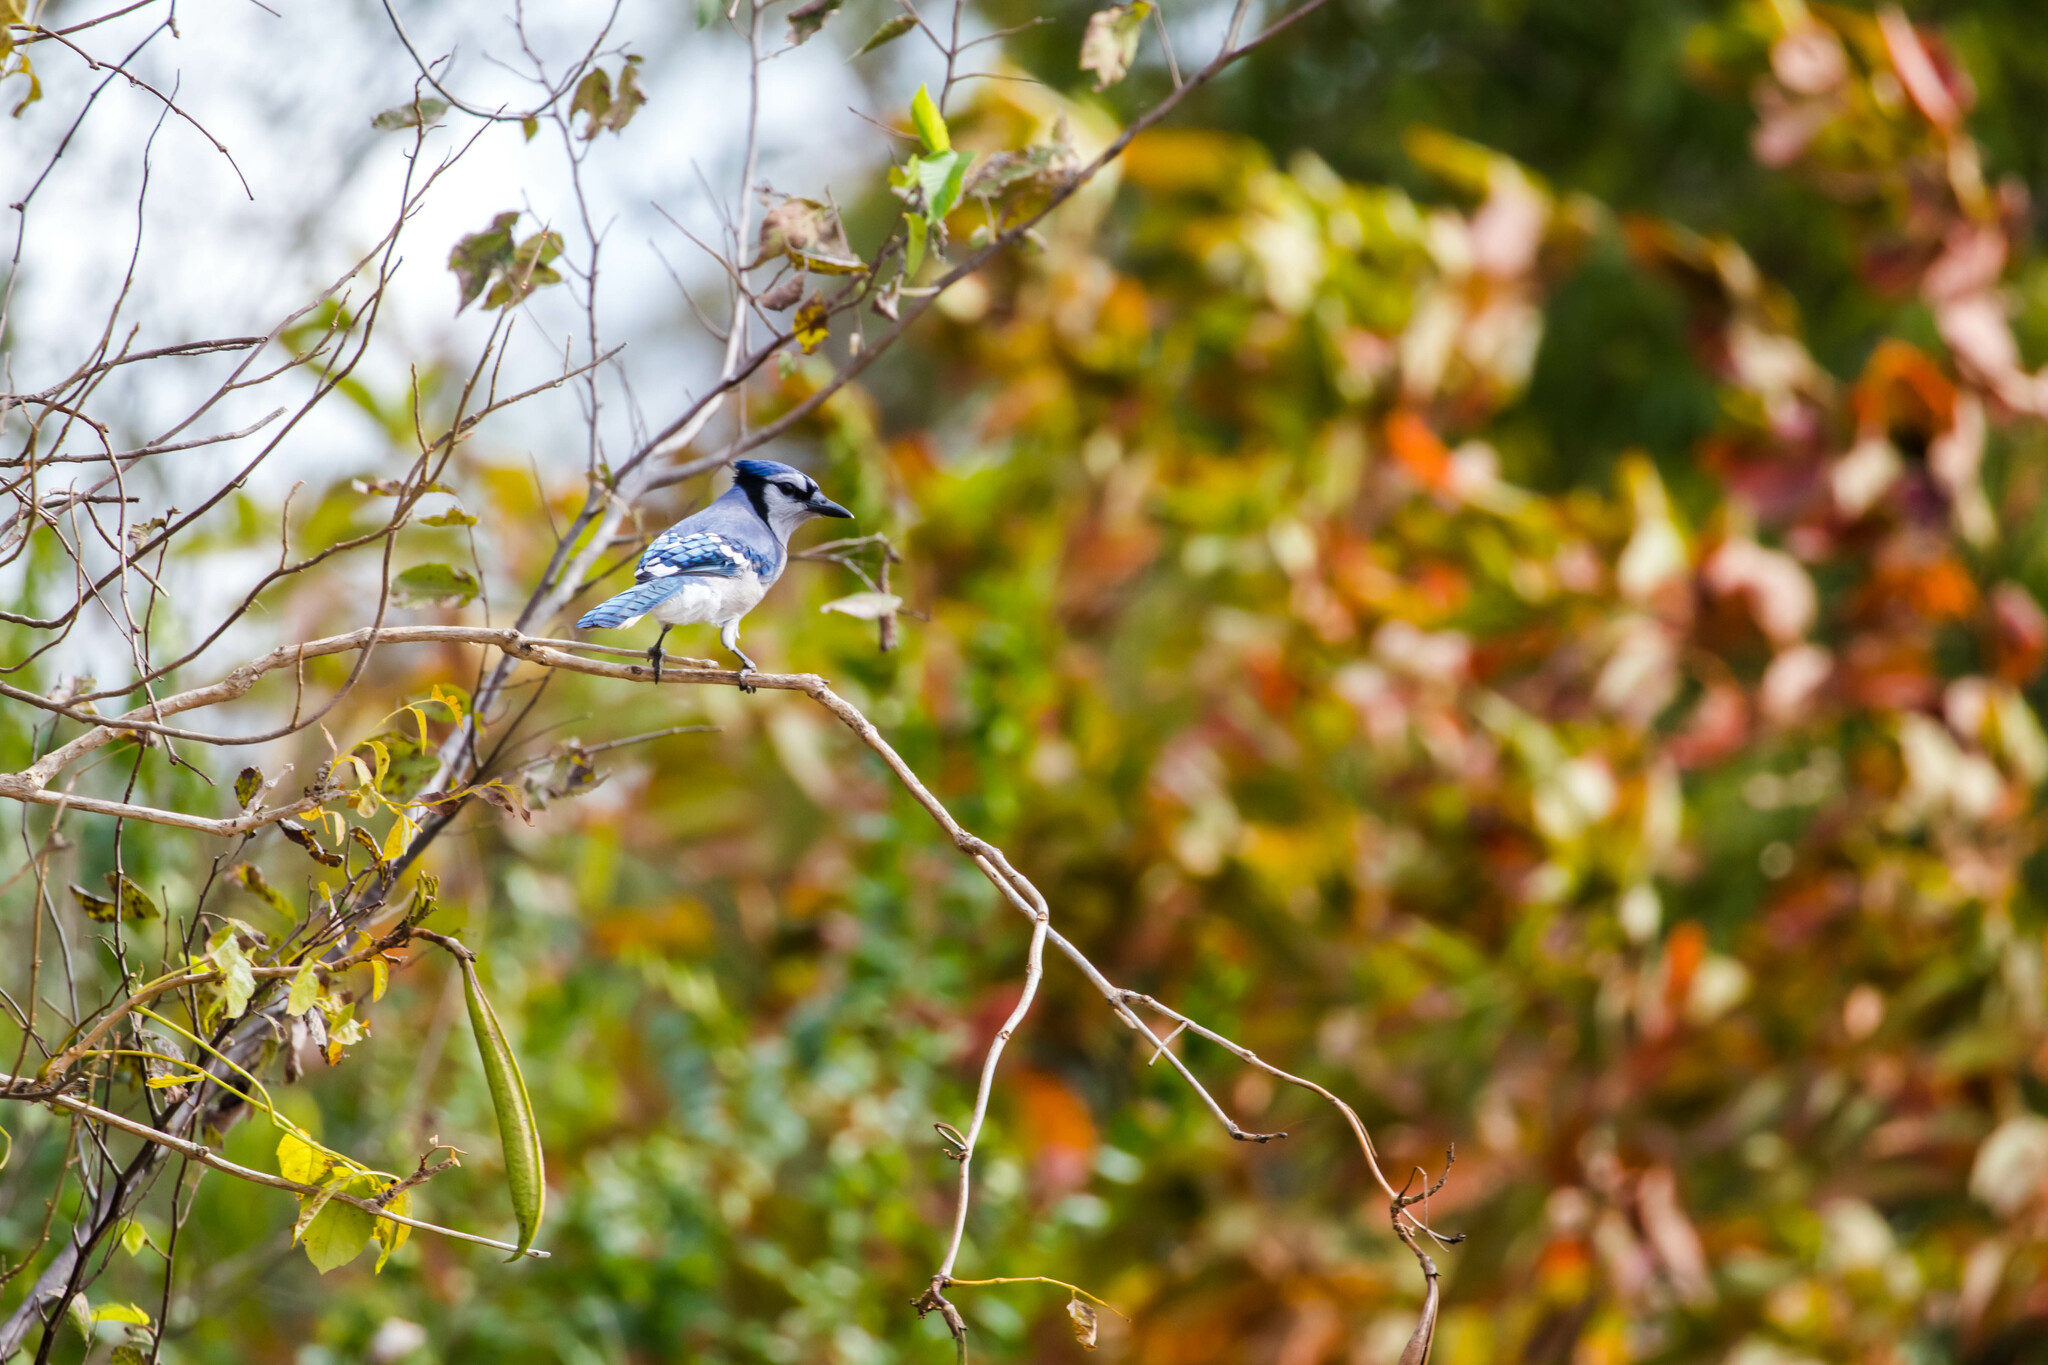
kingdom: Animalia
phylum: Chordata
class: Aves
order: Passeriformes
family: Corvidae
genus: Cyanocitta
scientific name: Cyanocitta cristata
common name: Blue jay
